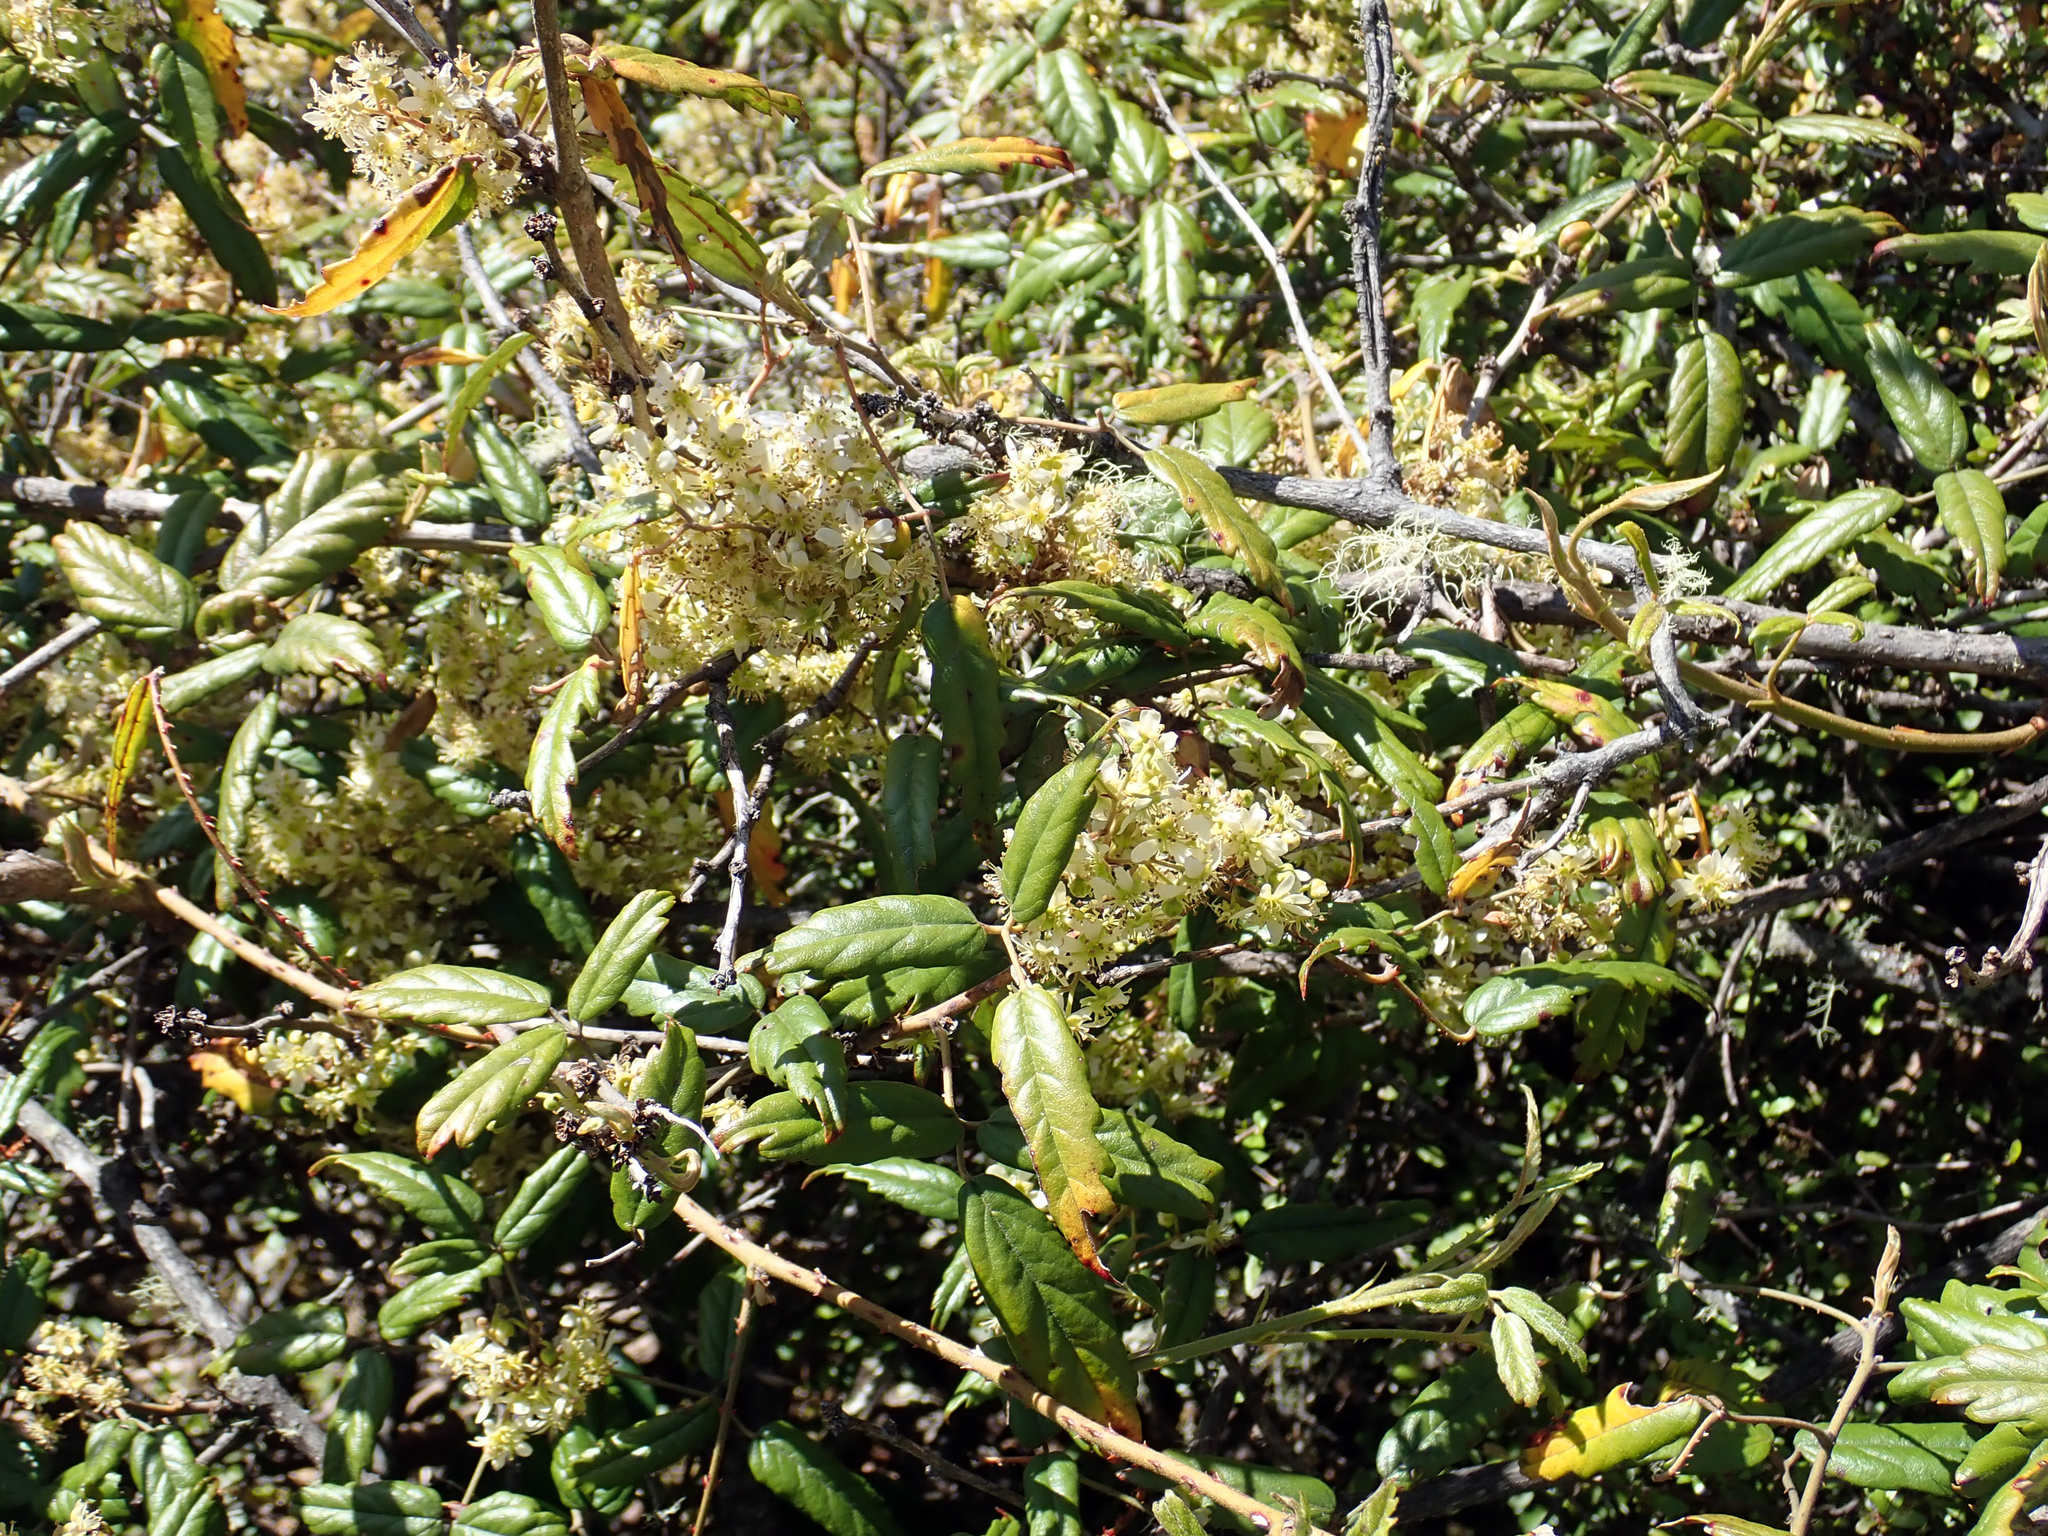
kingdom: Plantae
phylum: Tracheophyta
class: Magnoliopsida
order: Rosales
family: Rosaceae
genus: Rubus
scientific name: Rubus schmidelioides
